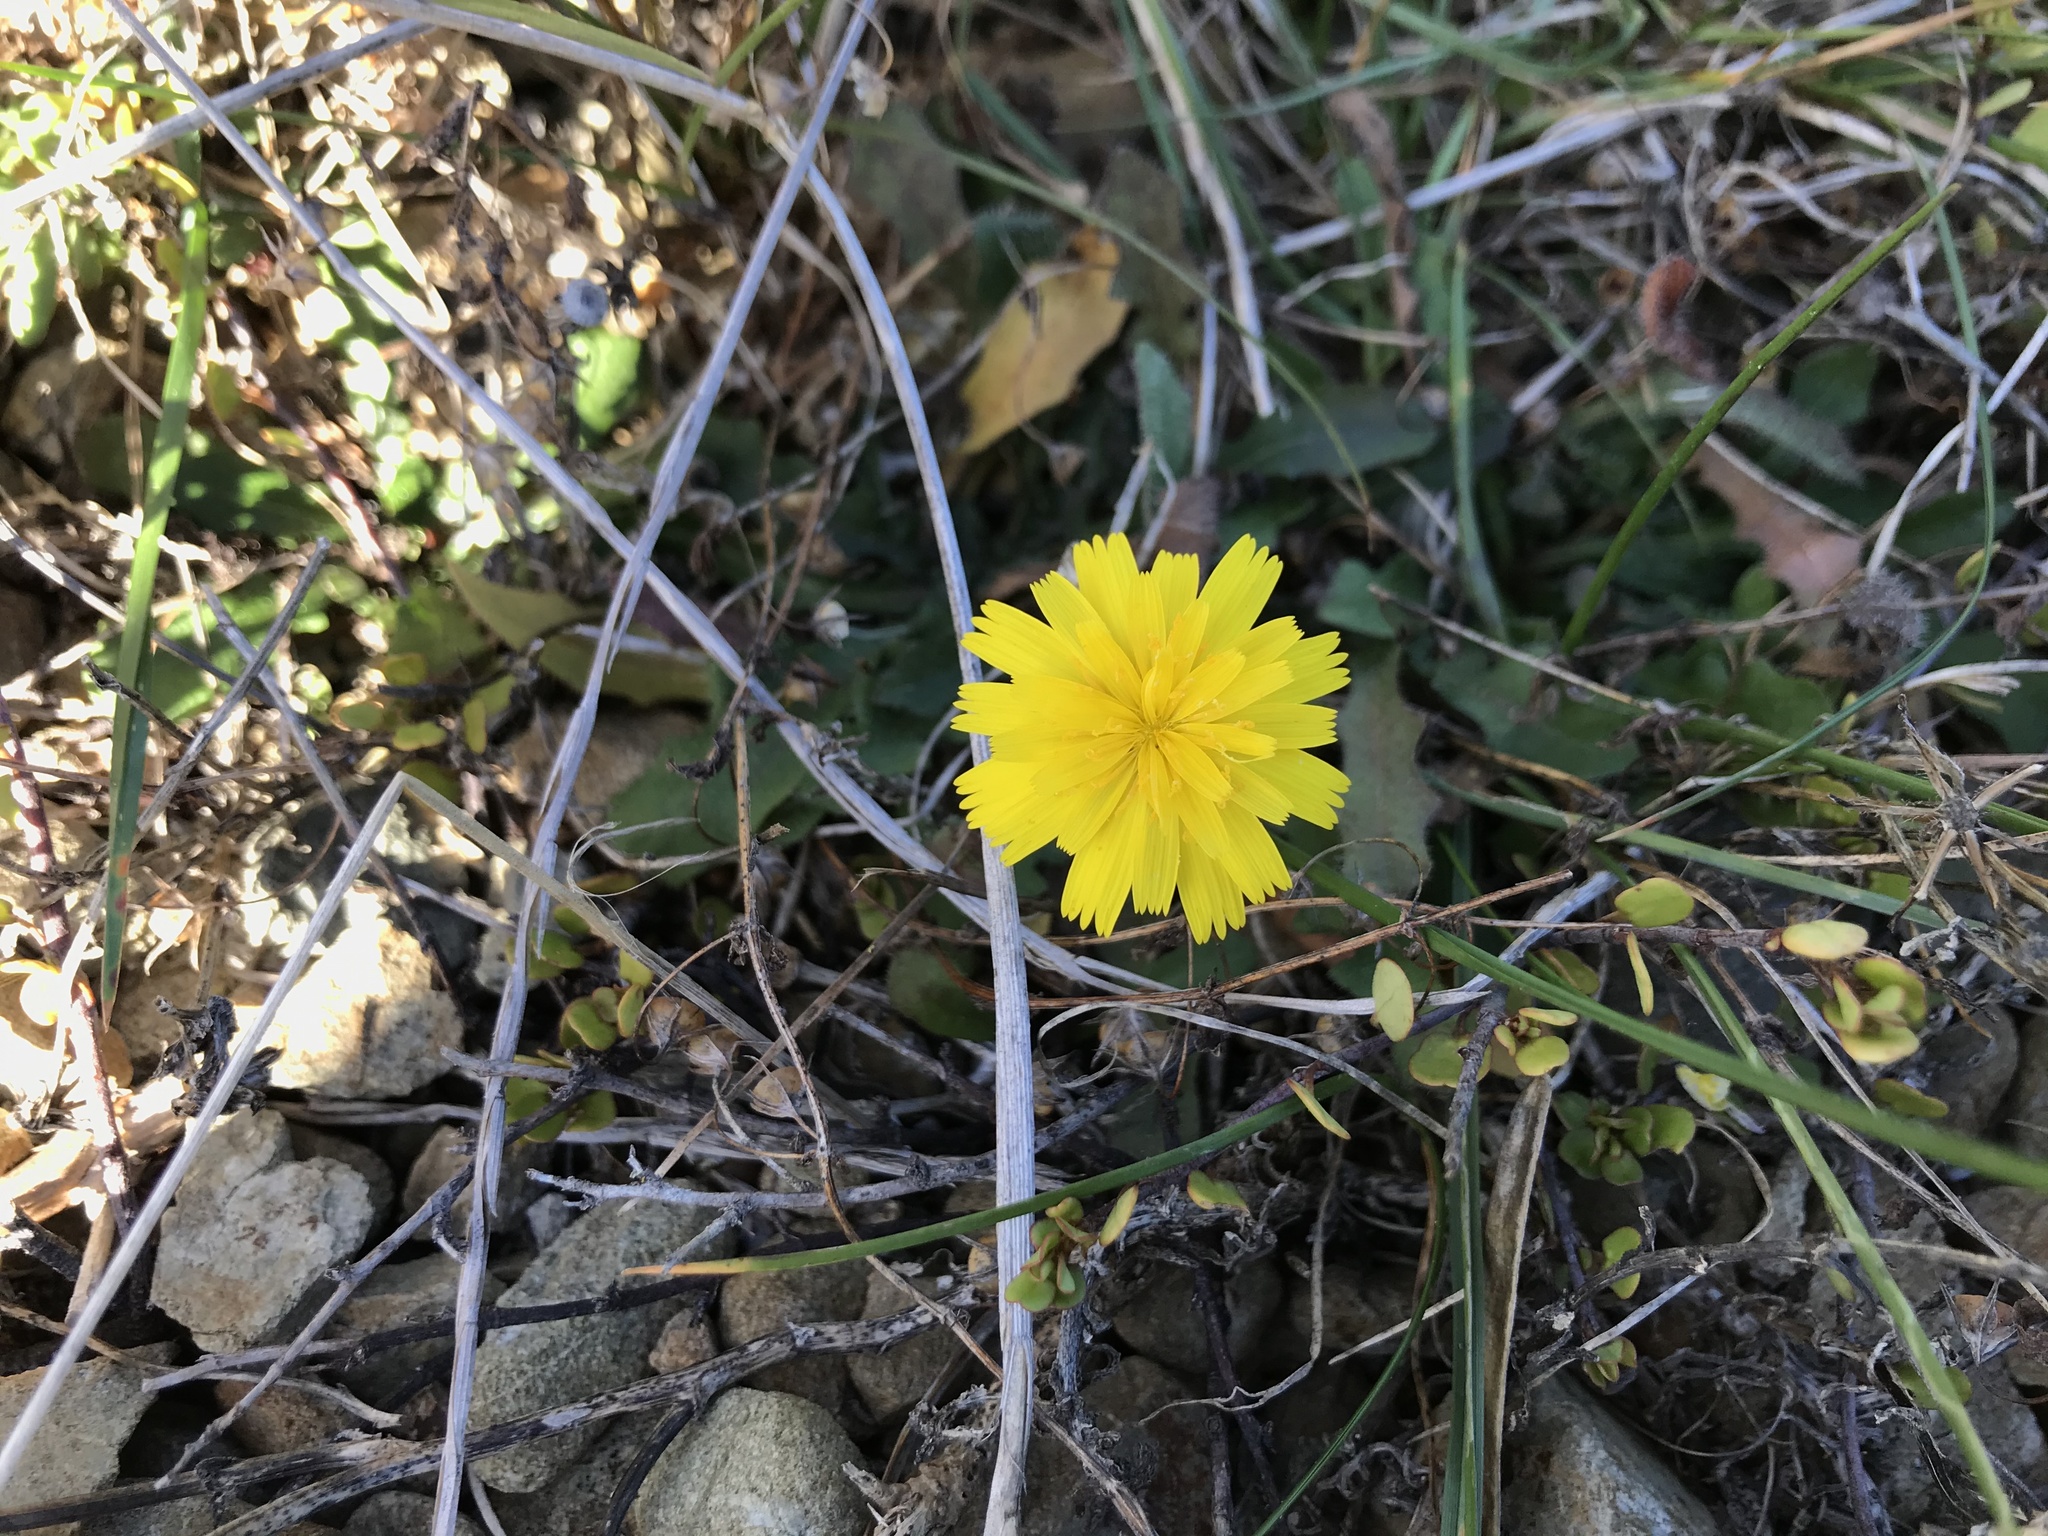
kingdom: Plantae
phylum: Tracheophyta
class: Magnoliopsida
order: Asterales
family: Asteraceae
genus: Hypochaeris
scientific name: Hypochaeris radicata
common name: Flatweed
